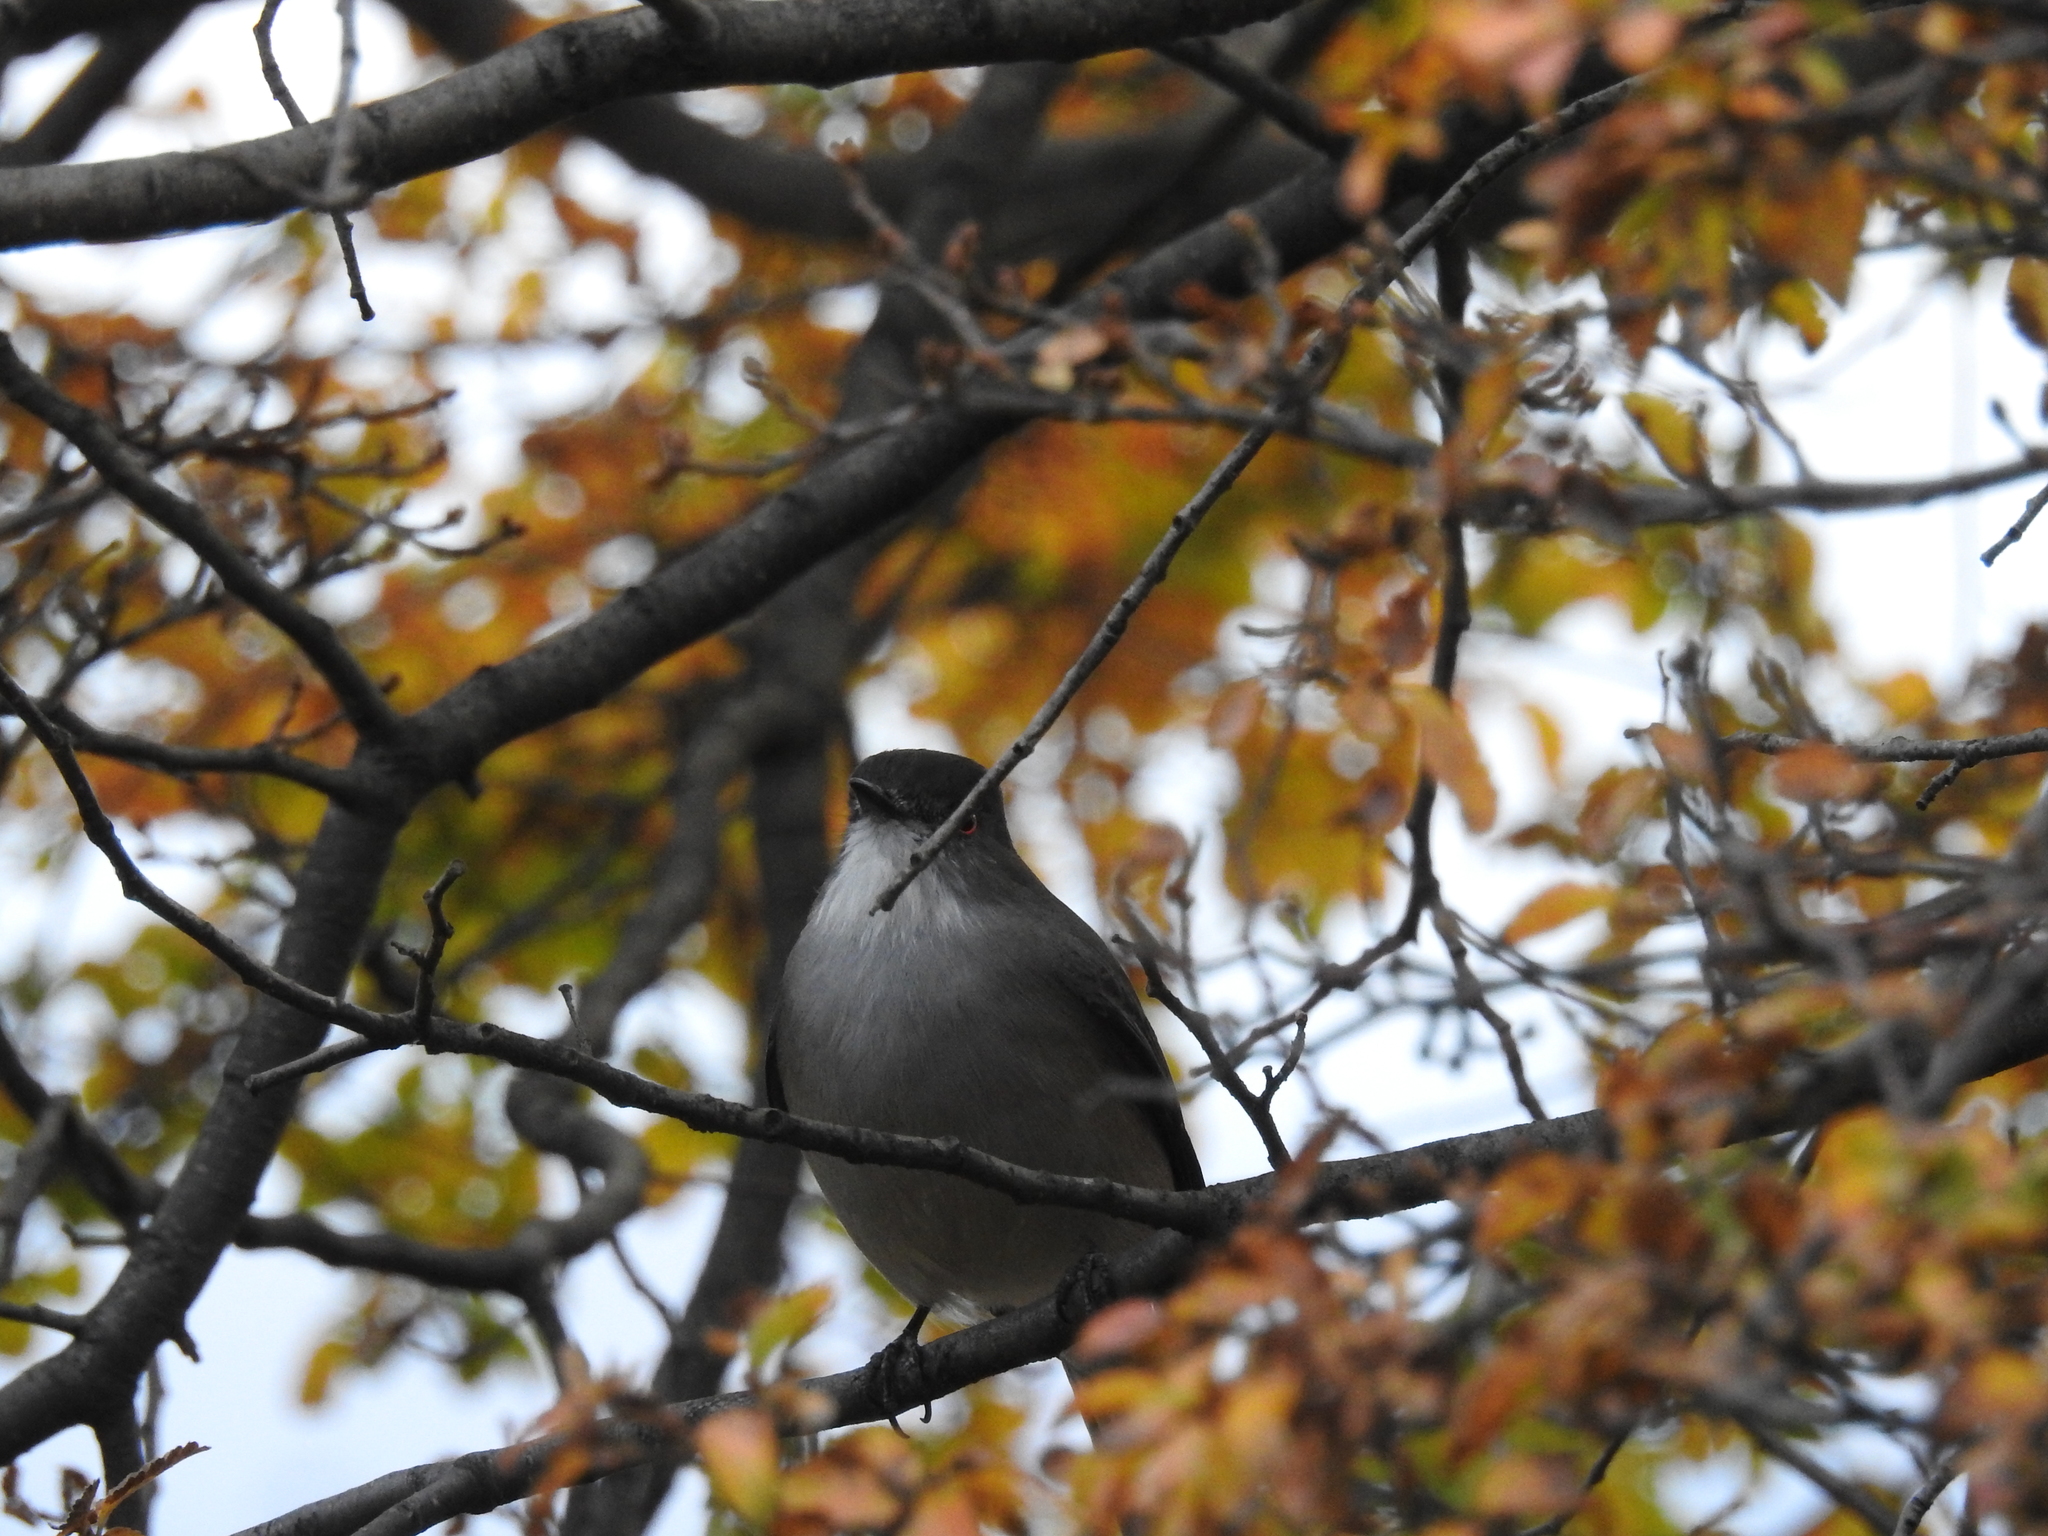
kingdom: Animalia
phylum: Chordata
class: Aves
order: Passeriformes
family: Tyrannidae
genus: Xolmis
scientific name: Xolmis pyrope
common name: Fire-eyed diucon
